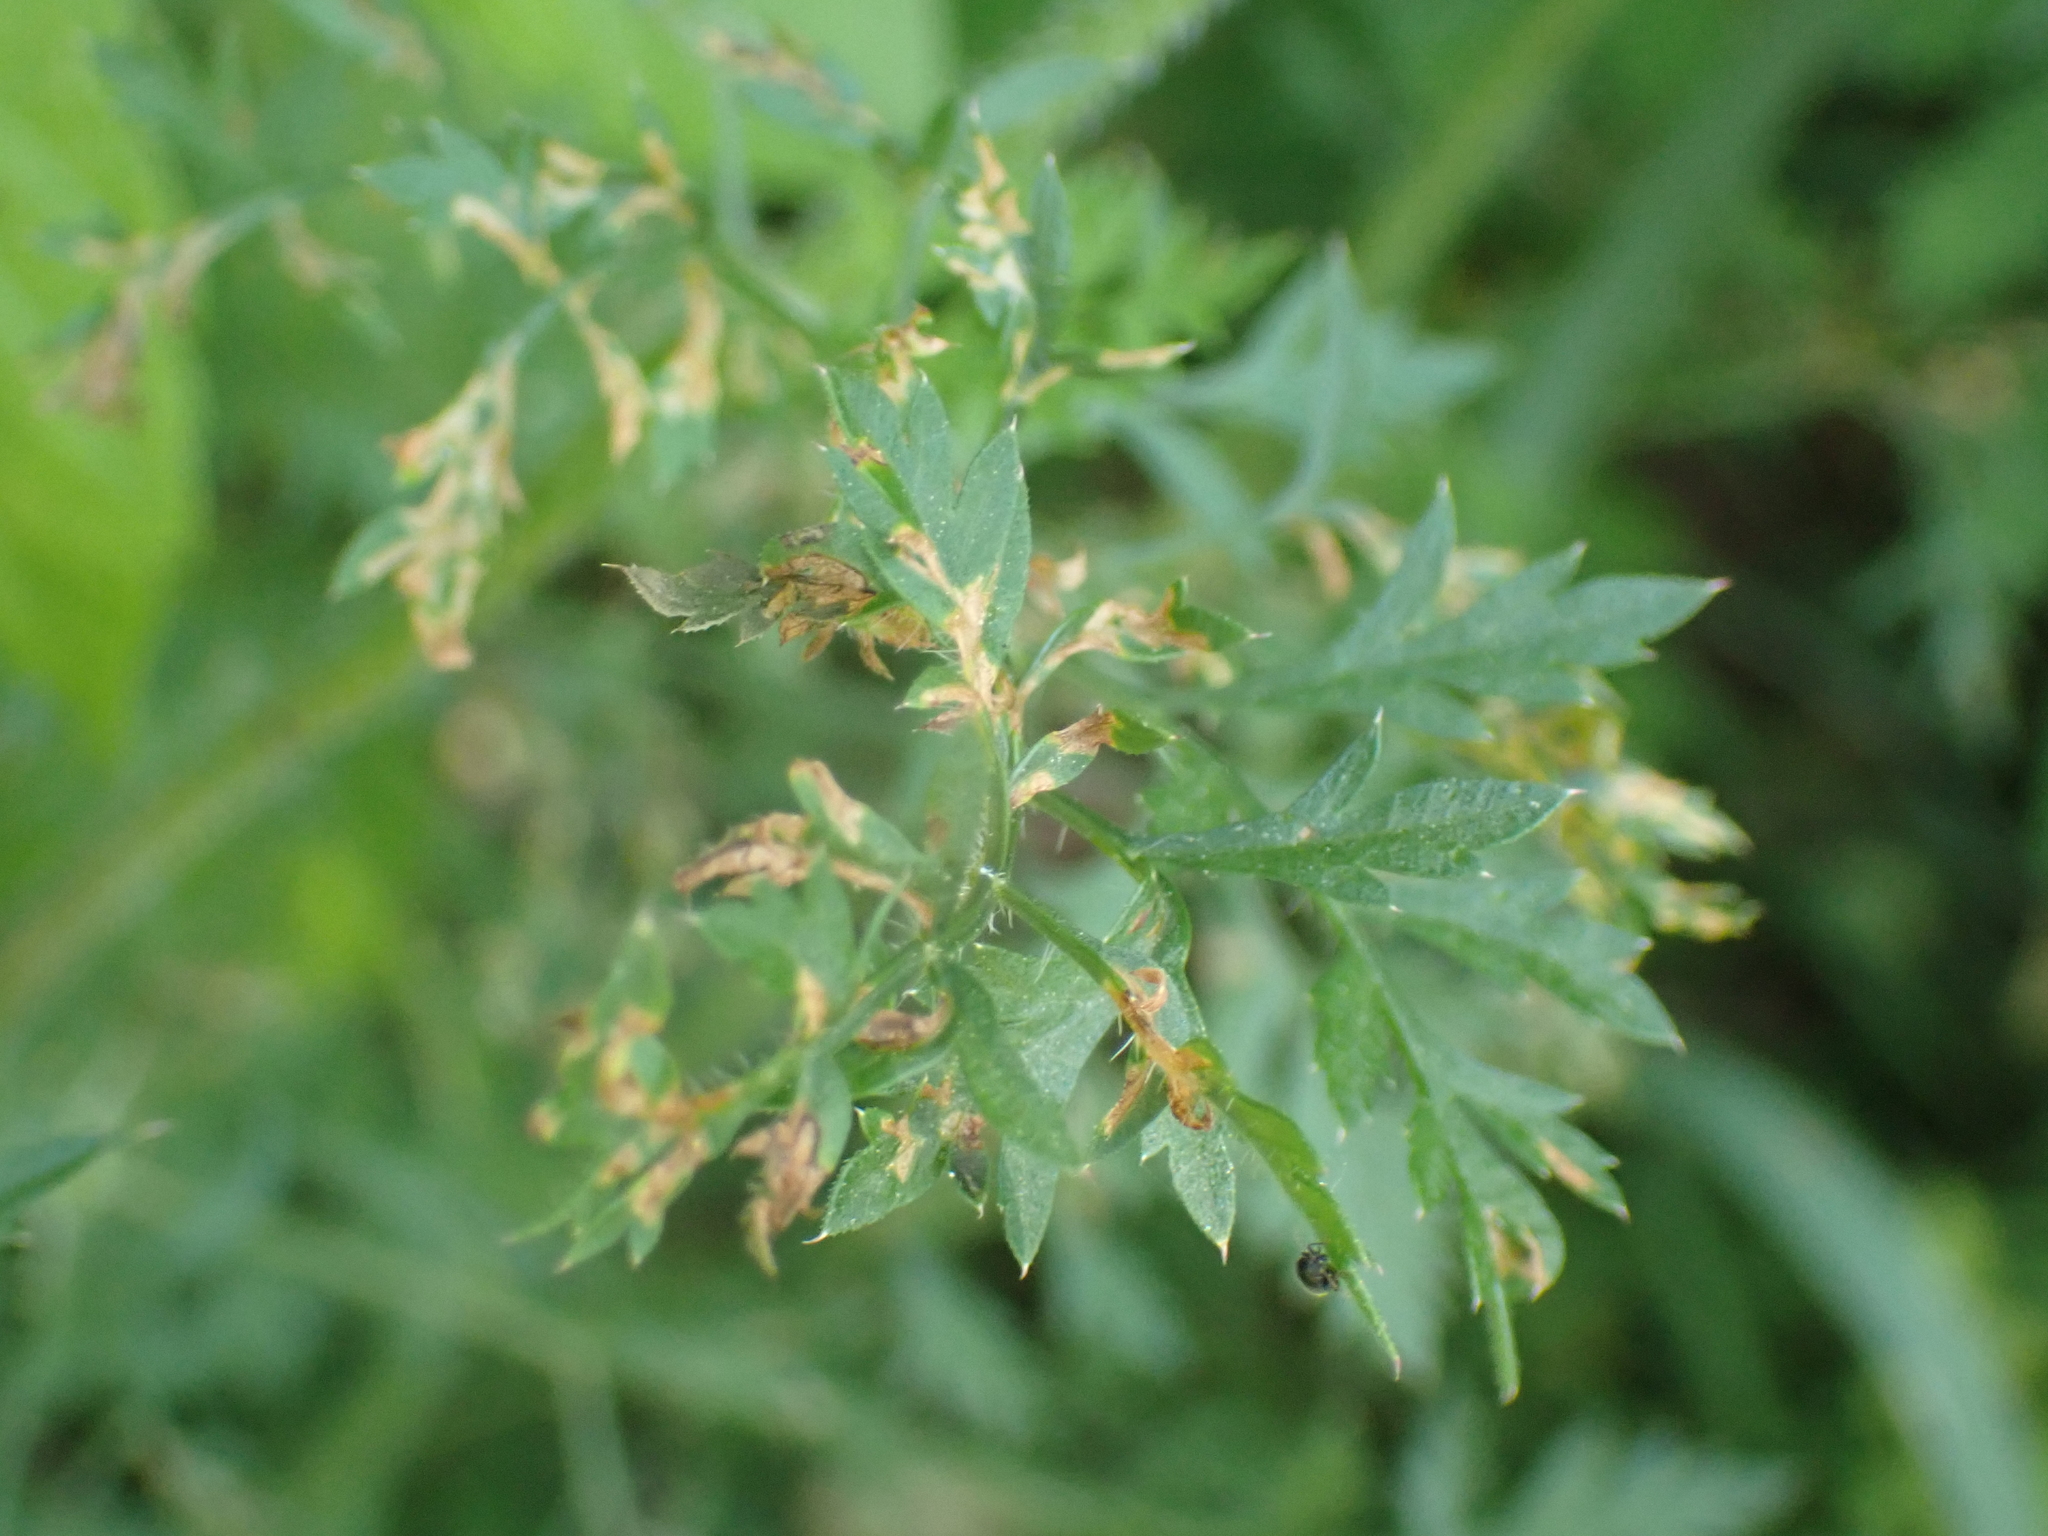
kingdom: Plantae
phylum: Tracheophyta
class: Magnoliopsida
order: Apiales
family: Apiaceae
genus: Daucus
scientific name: Daucus carota
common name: Wild carrot
